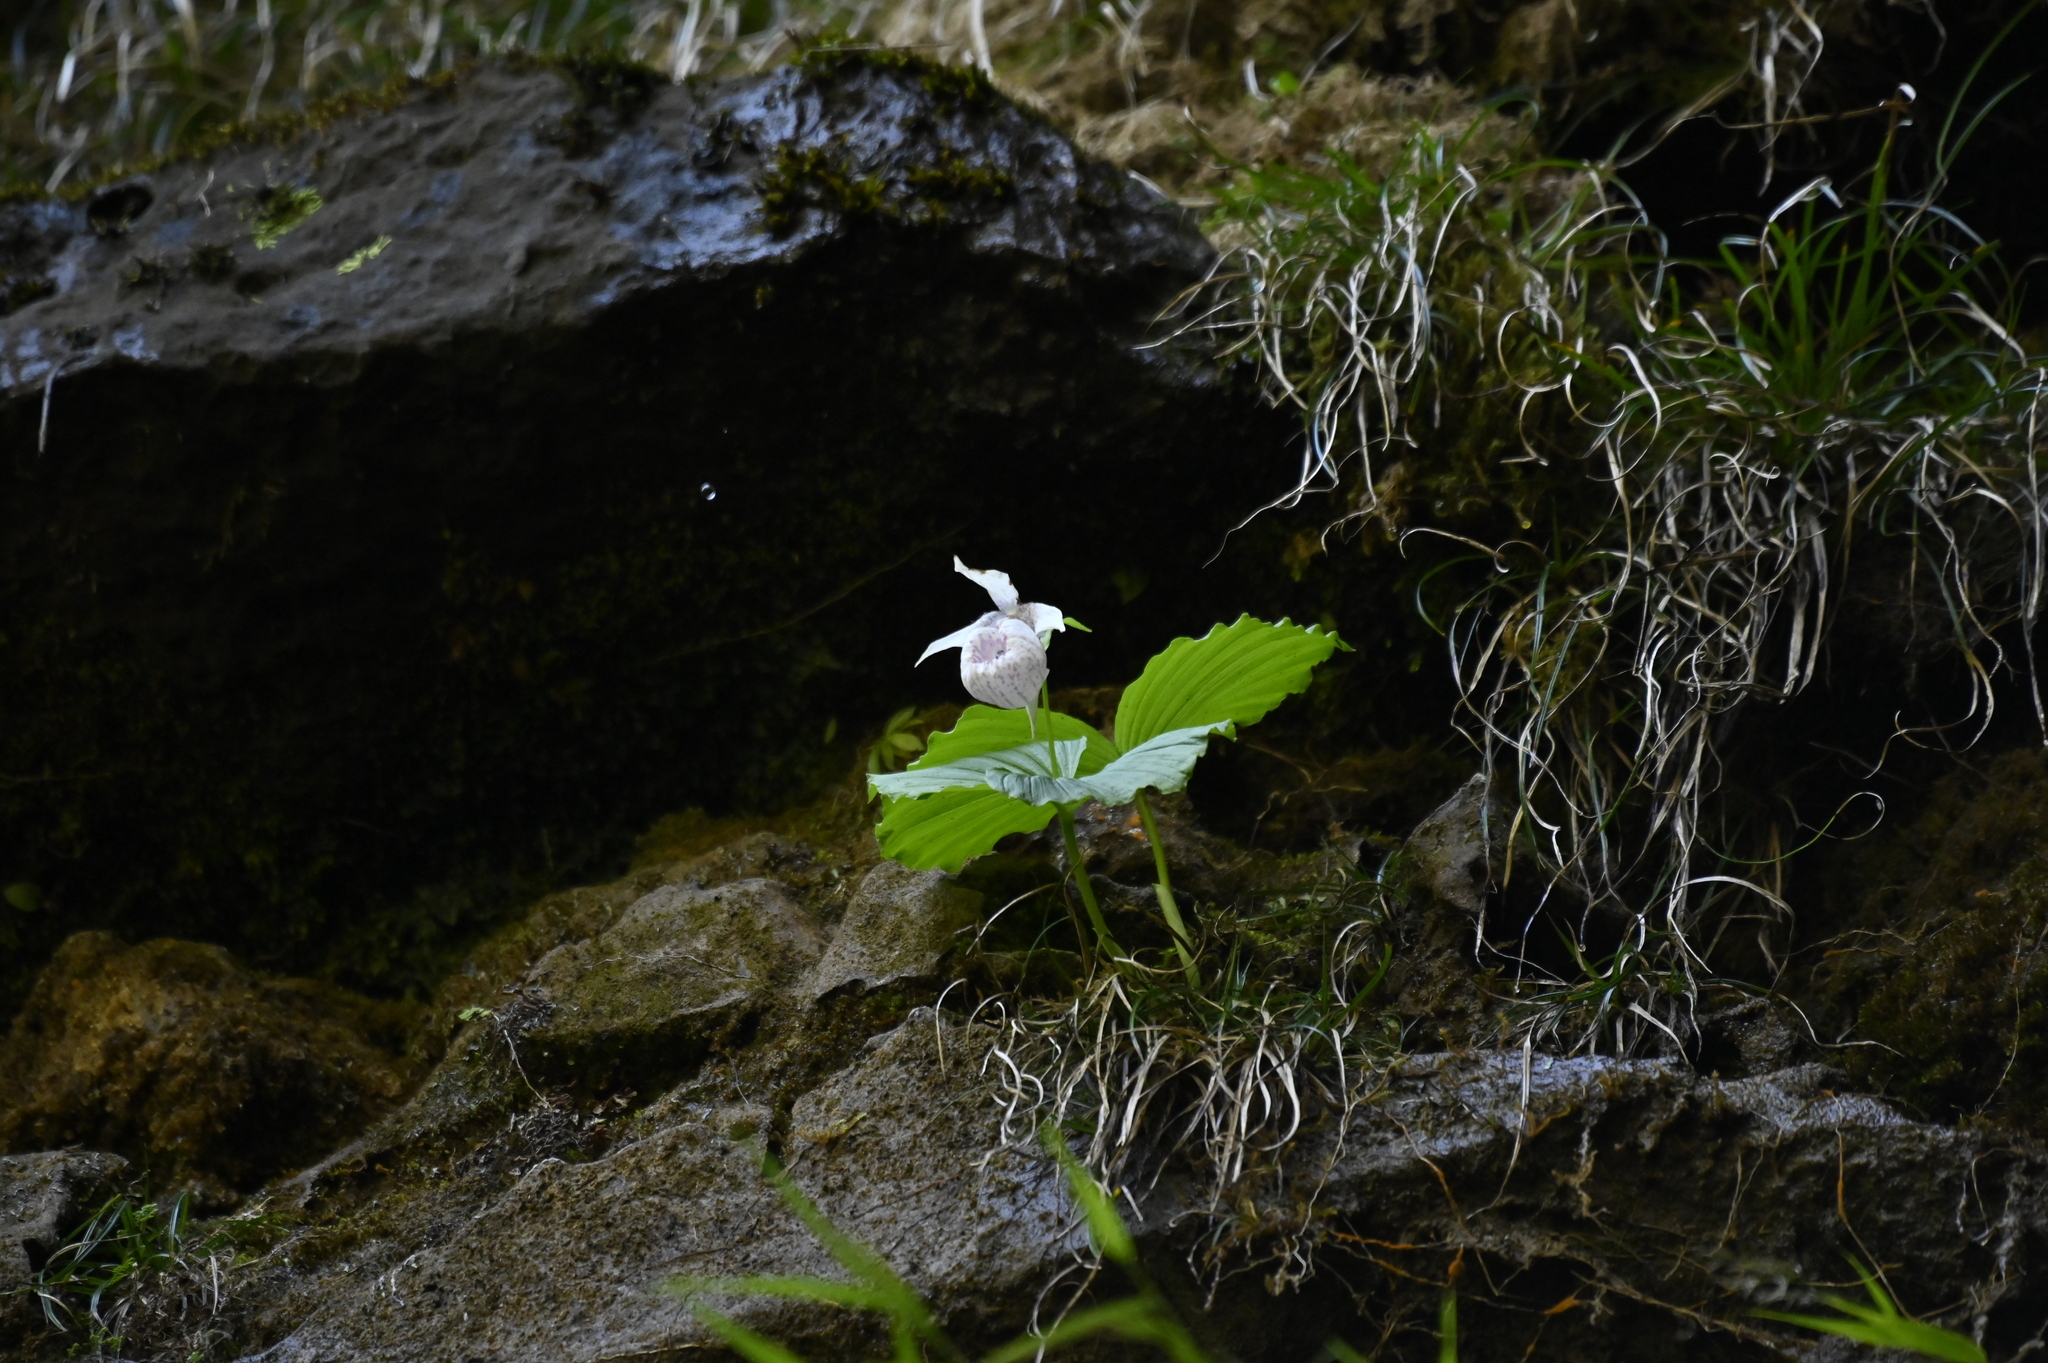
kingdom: Plantae
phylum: Tracheophyta
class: Liliopsida
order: Asparagales
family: Orchidaceae
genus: Cypripedium
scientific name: Cypripedium formosanum
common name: Formosa's lady's slipper
